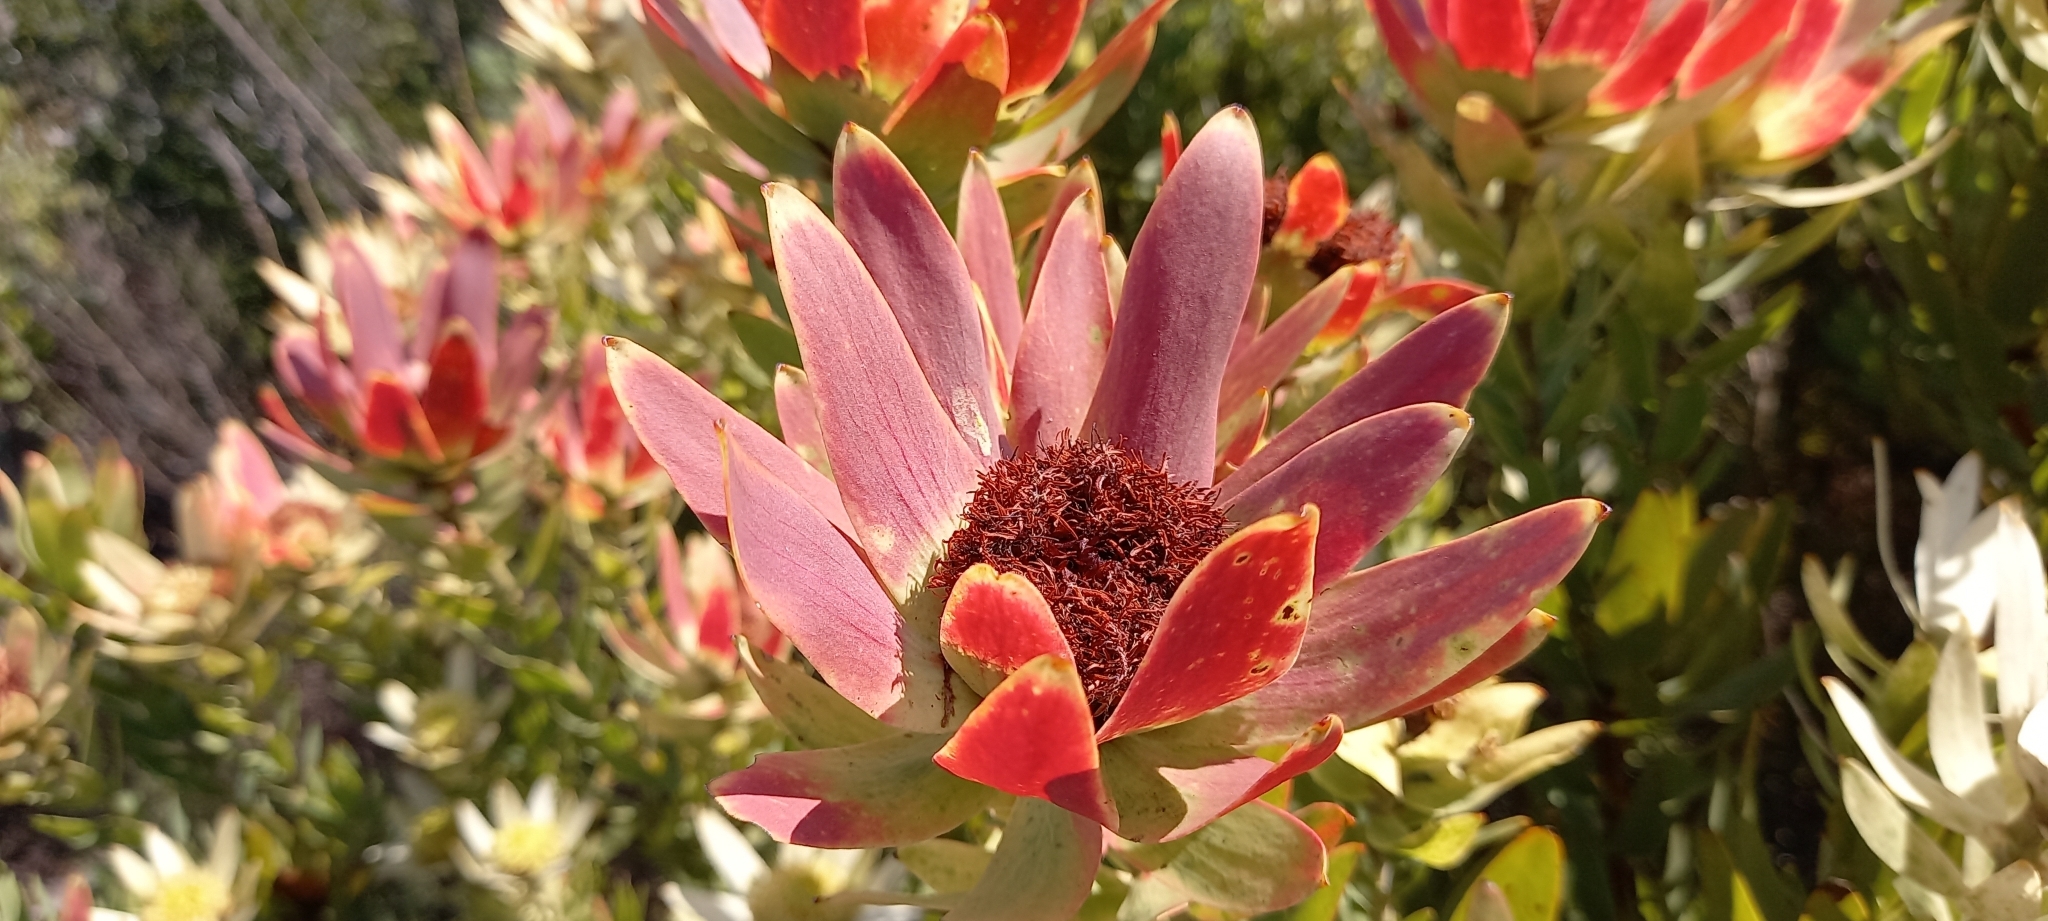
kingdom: Plantae
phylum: Tracheophyta
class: Magnoliopsida
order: Proteales
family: Proteaceae
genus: Leucadendron
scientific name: Leucadendron sessile
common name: Western sunbush
